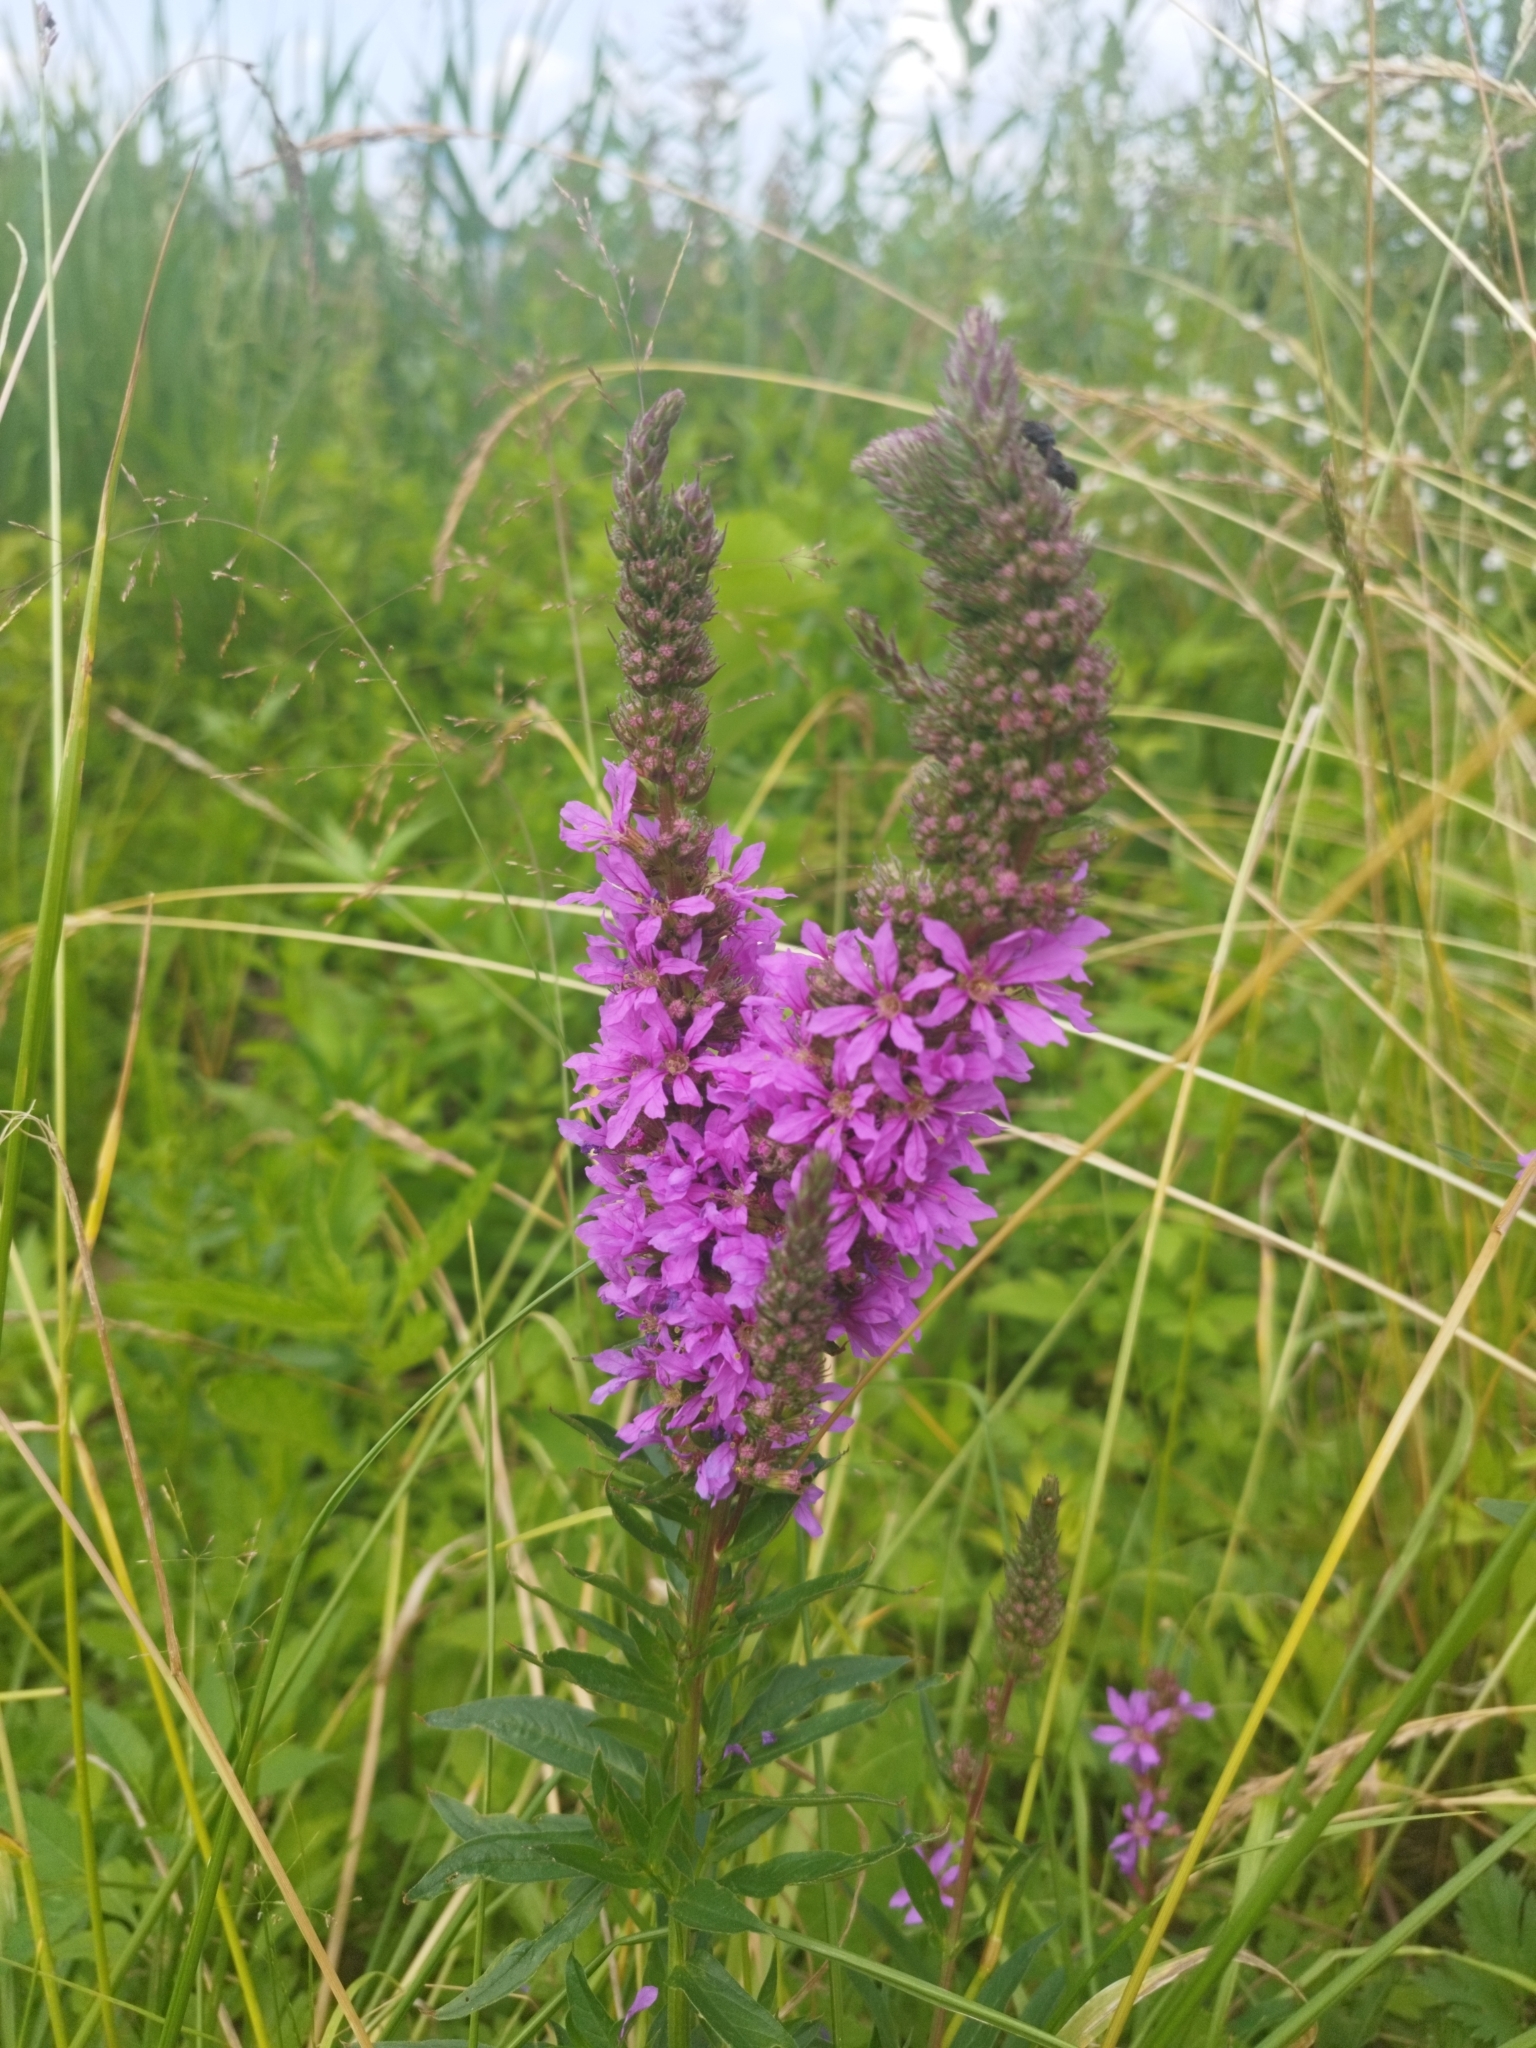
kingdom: Plantae
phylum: Tracheophyta
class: Magnoliopsida
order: Myrtales
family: Lythraceae
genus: Lythrum
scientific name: Lythrum salicaria
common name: Purple loosestrife
